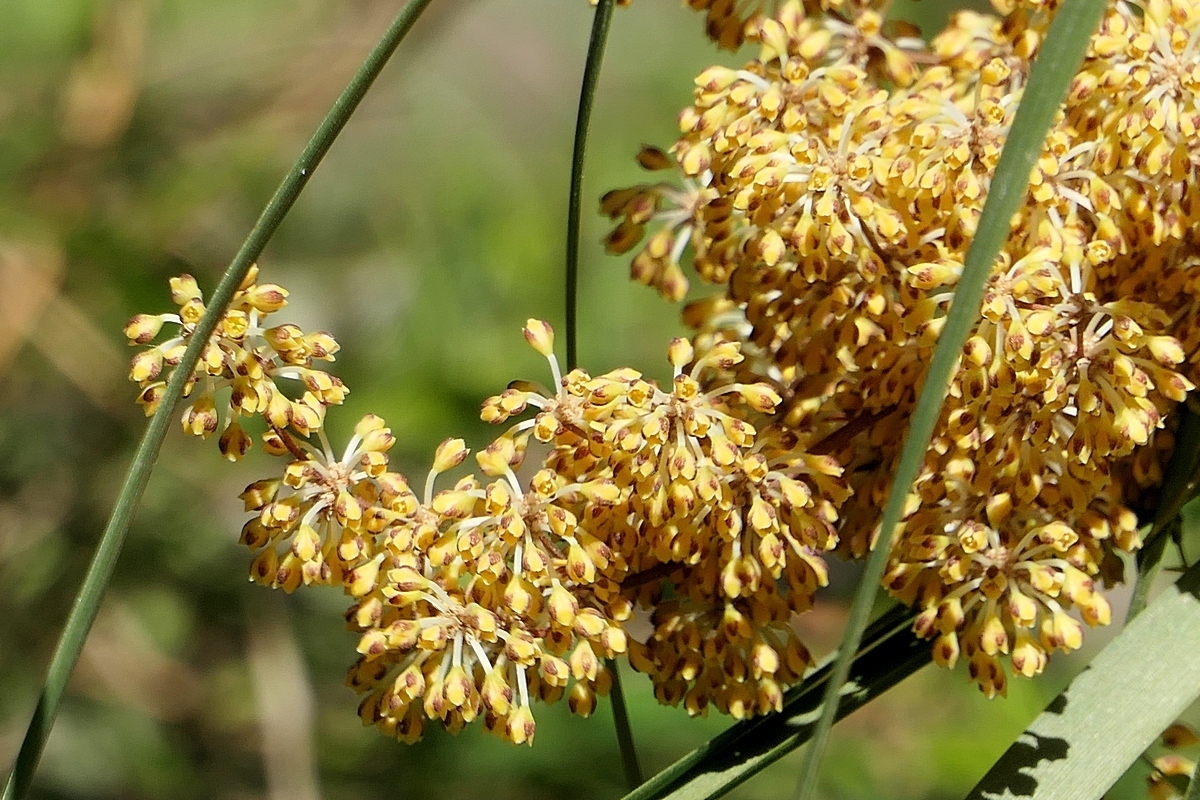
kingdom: Plantae
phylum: Tracheophyta
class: Liliopsida
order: Asparagales
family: Asparagaceae
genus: Lomandra
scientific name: Lomandra multiflora
